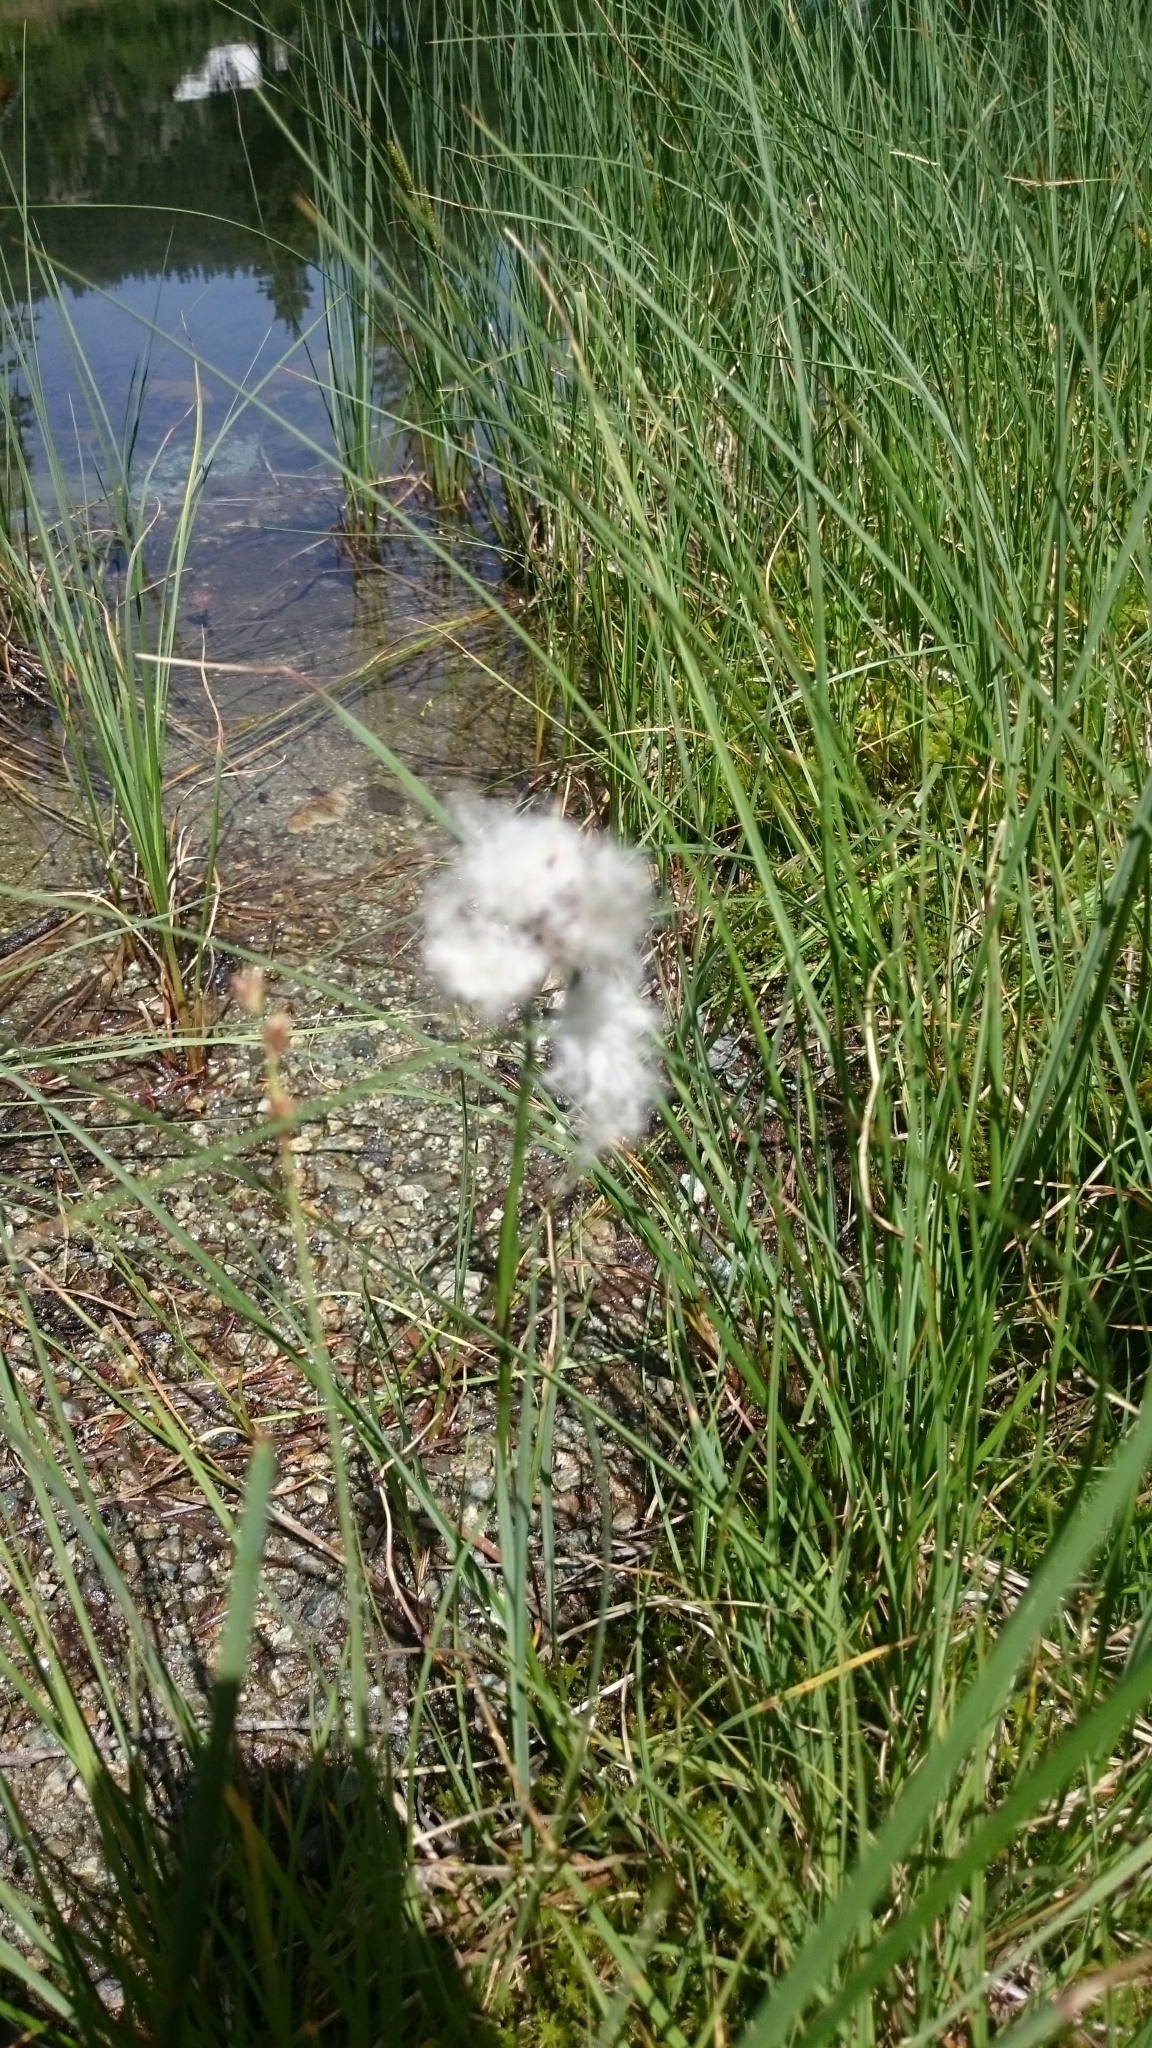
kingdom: Plantae
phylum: Tracheophyta
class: Liliopsida
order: Poales
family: Cyperaceae
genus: Eriophorum
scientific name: Eriophorum scheuchzeri
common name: Scheuchzer's cottongrass
